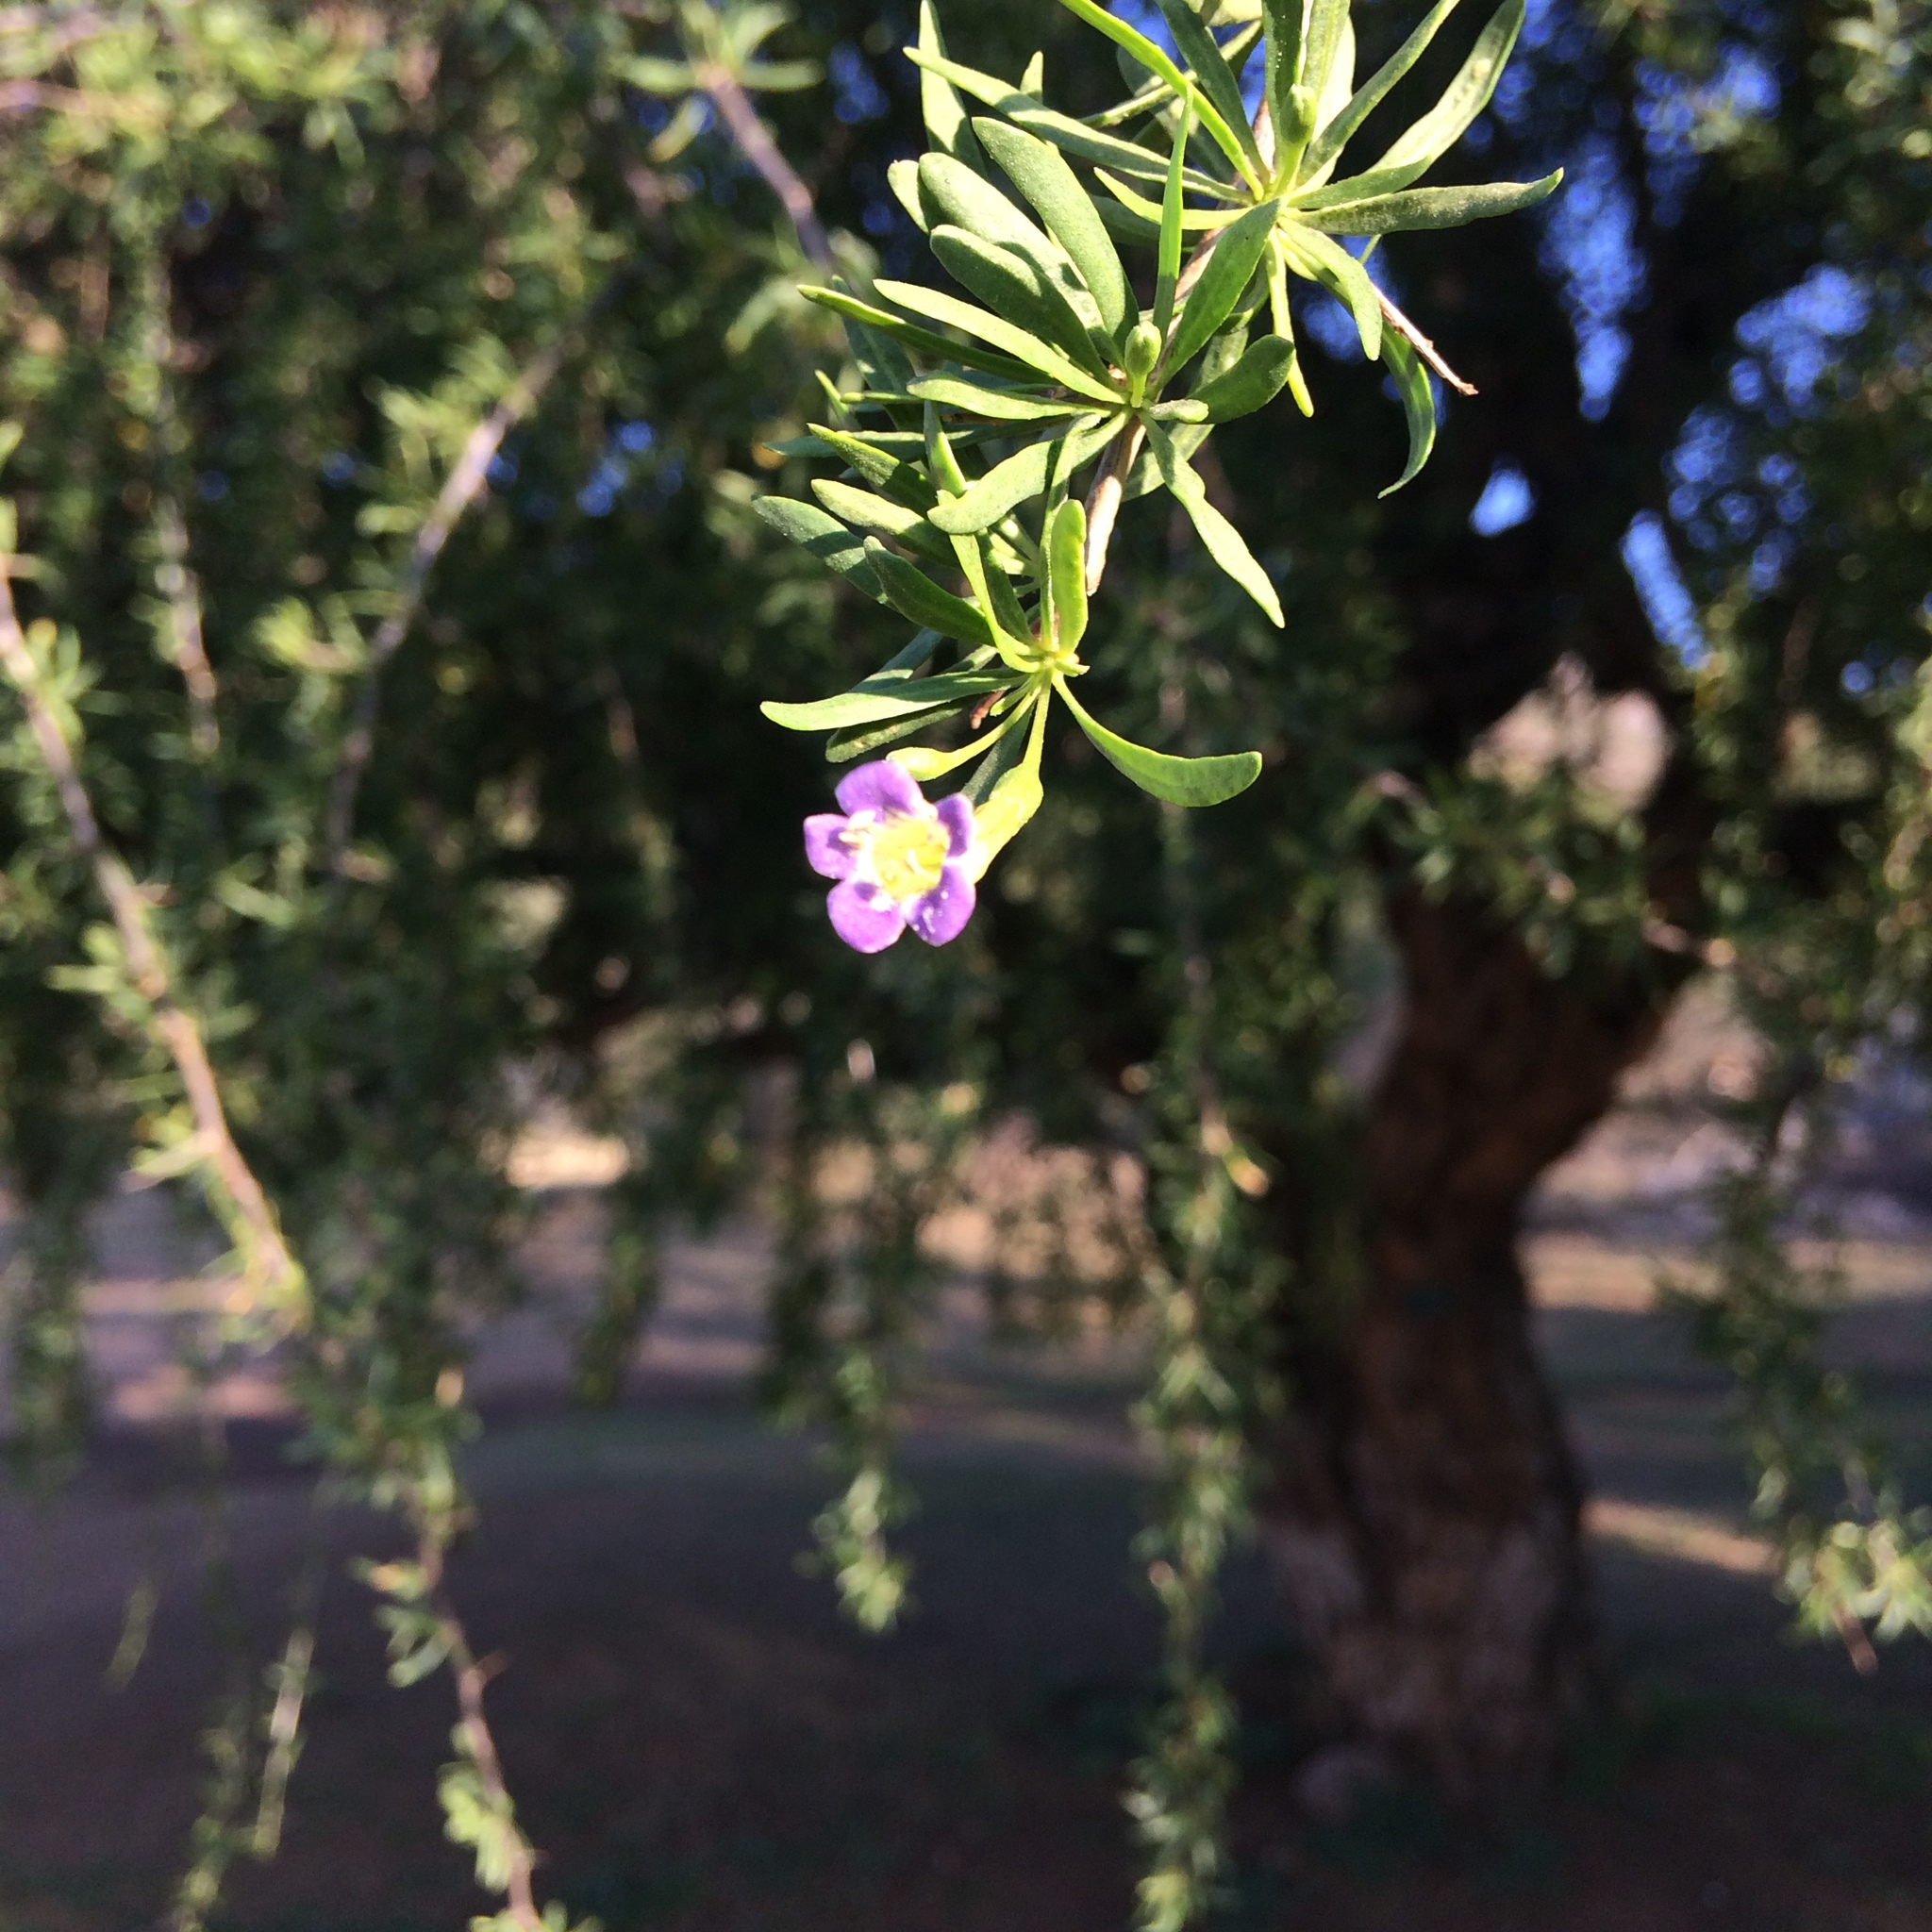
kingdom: Plantae
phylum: Tracheophyta
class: Magnoliopsida
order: Solanales
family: Solanaceae
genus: Lycium
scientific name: Lycium oxycarpum
